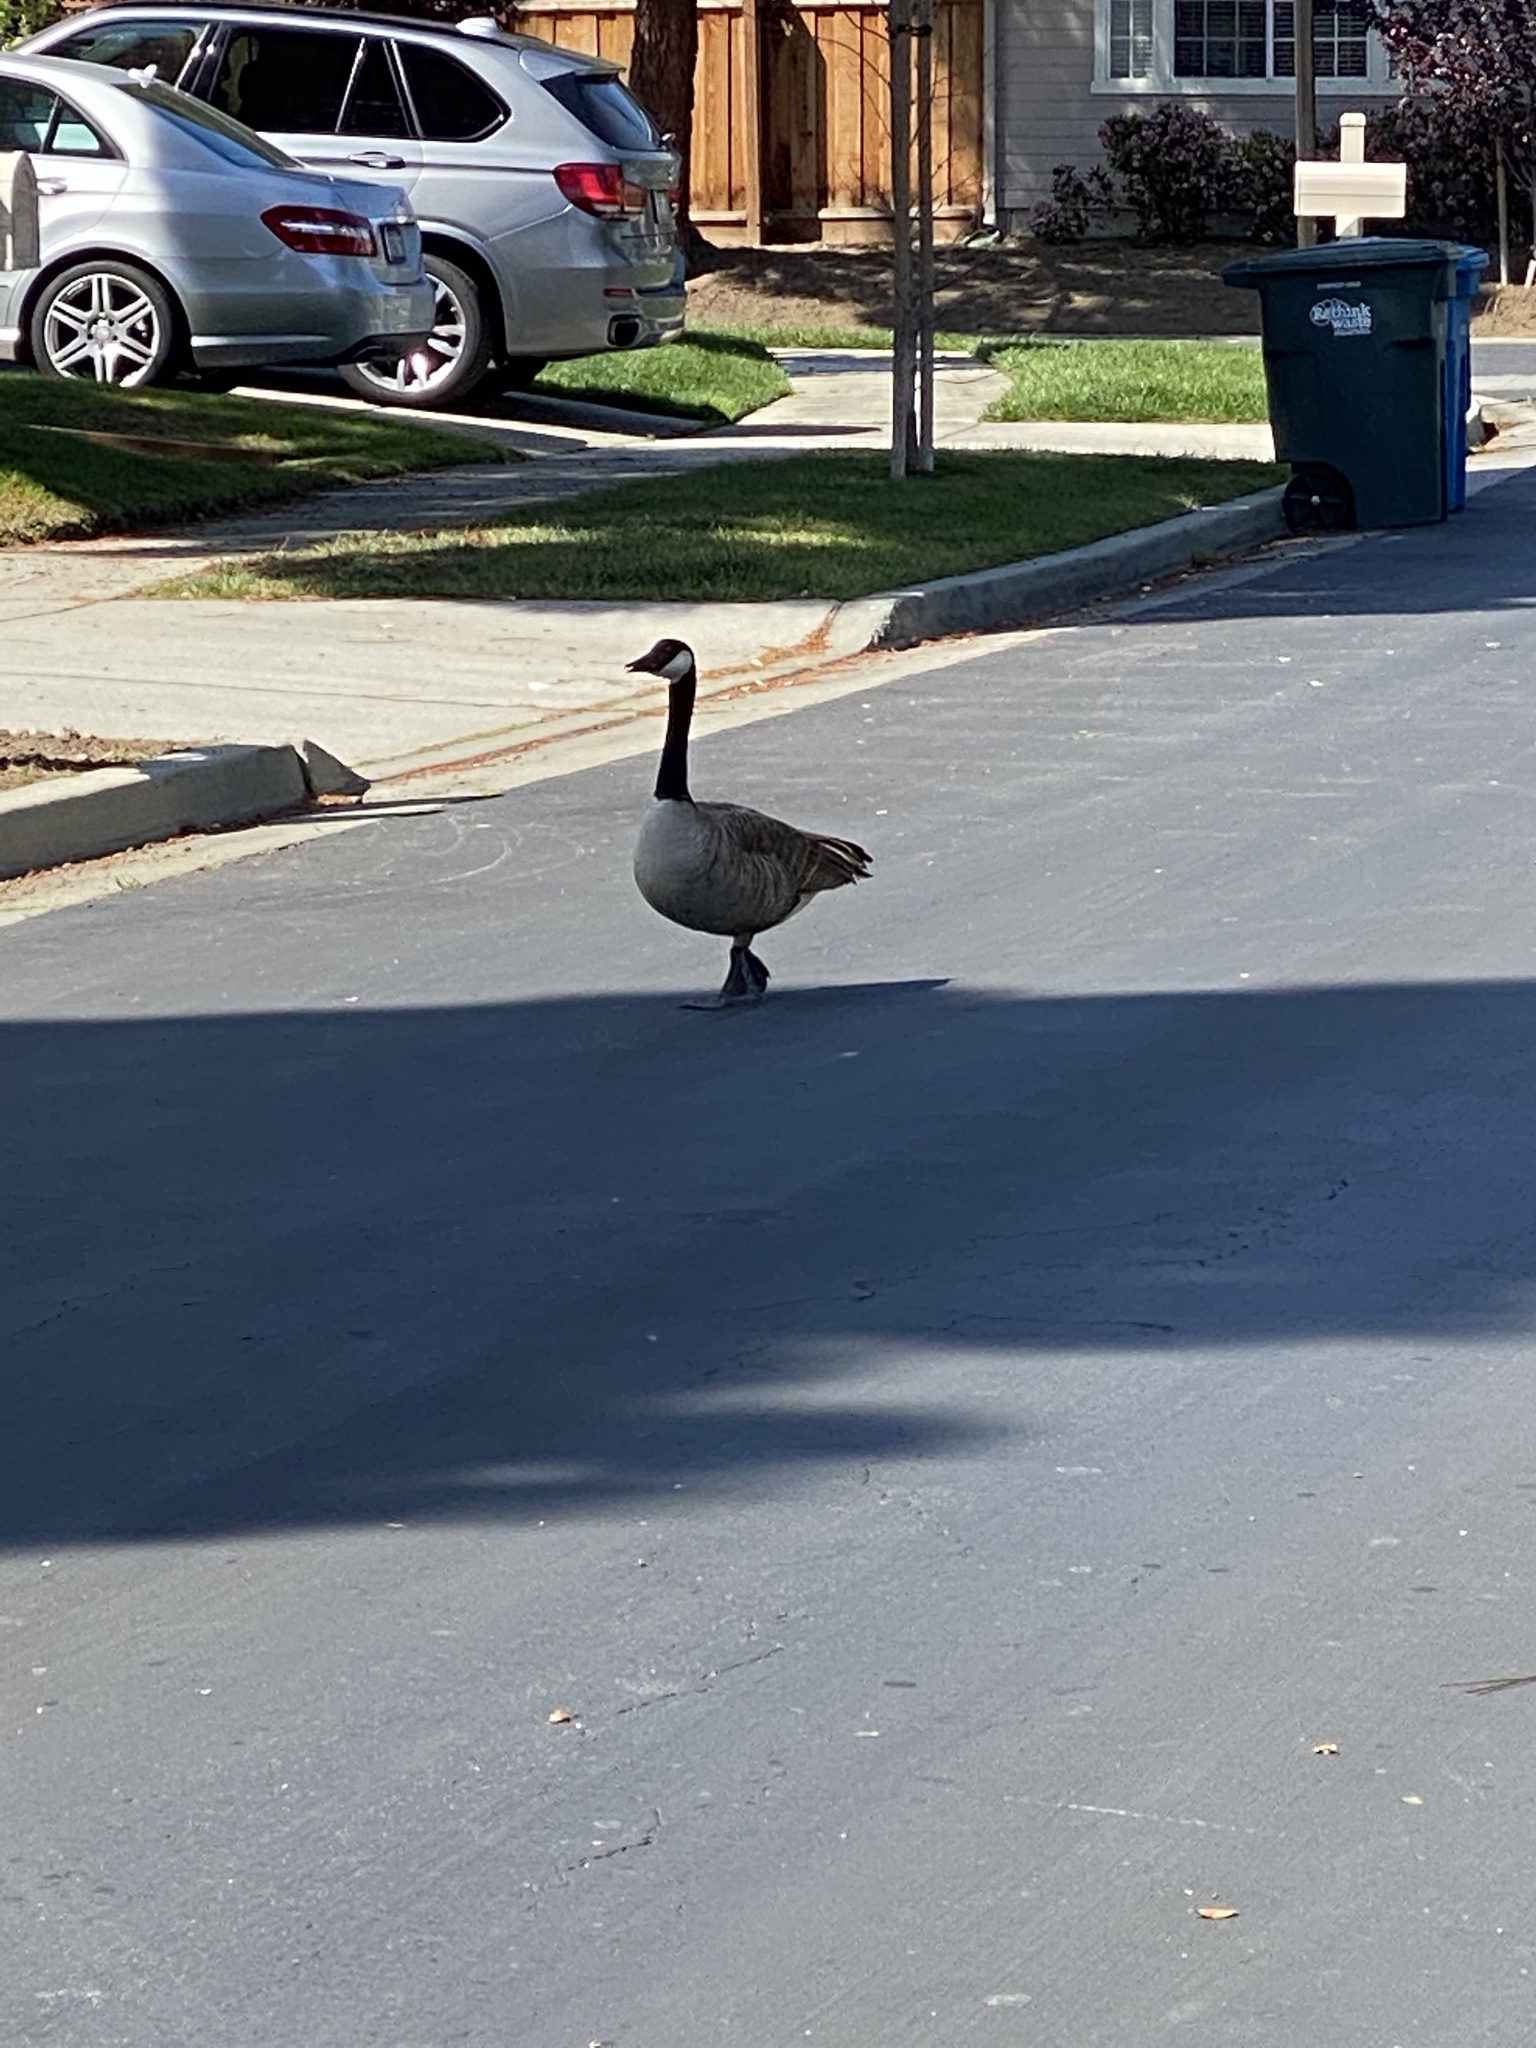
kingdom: Animalia
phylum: Chordata
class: Aves
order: Anseriformes
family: Anatidae
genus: Branta
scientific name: Branta canadensis
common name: Canada goose
